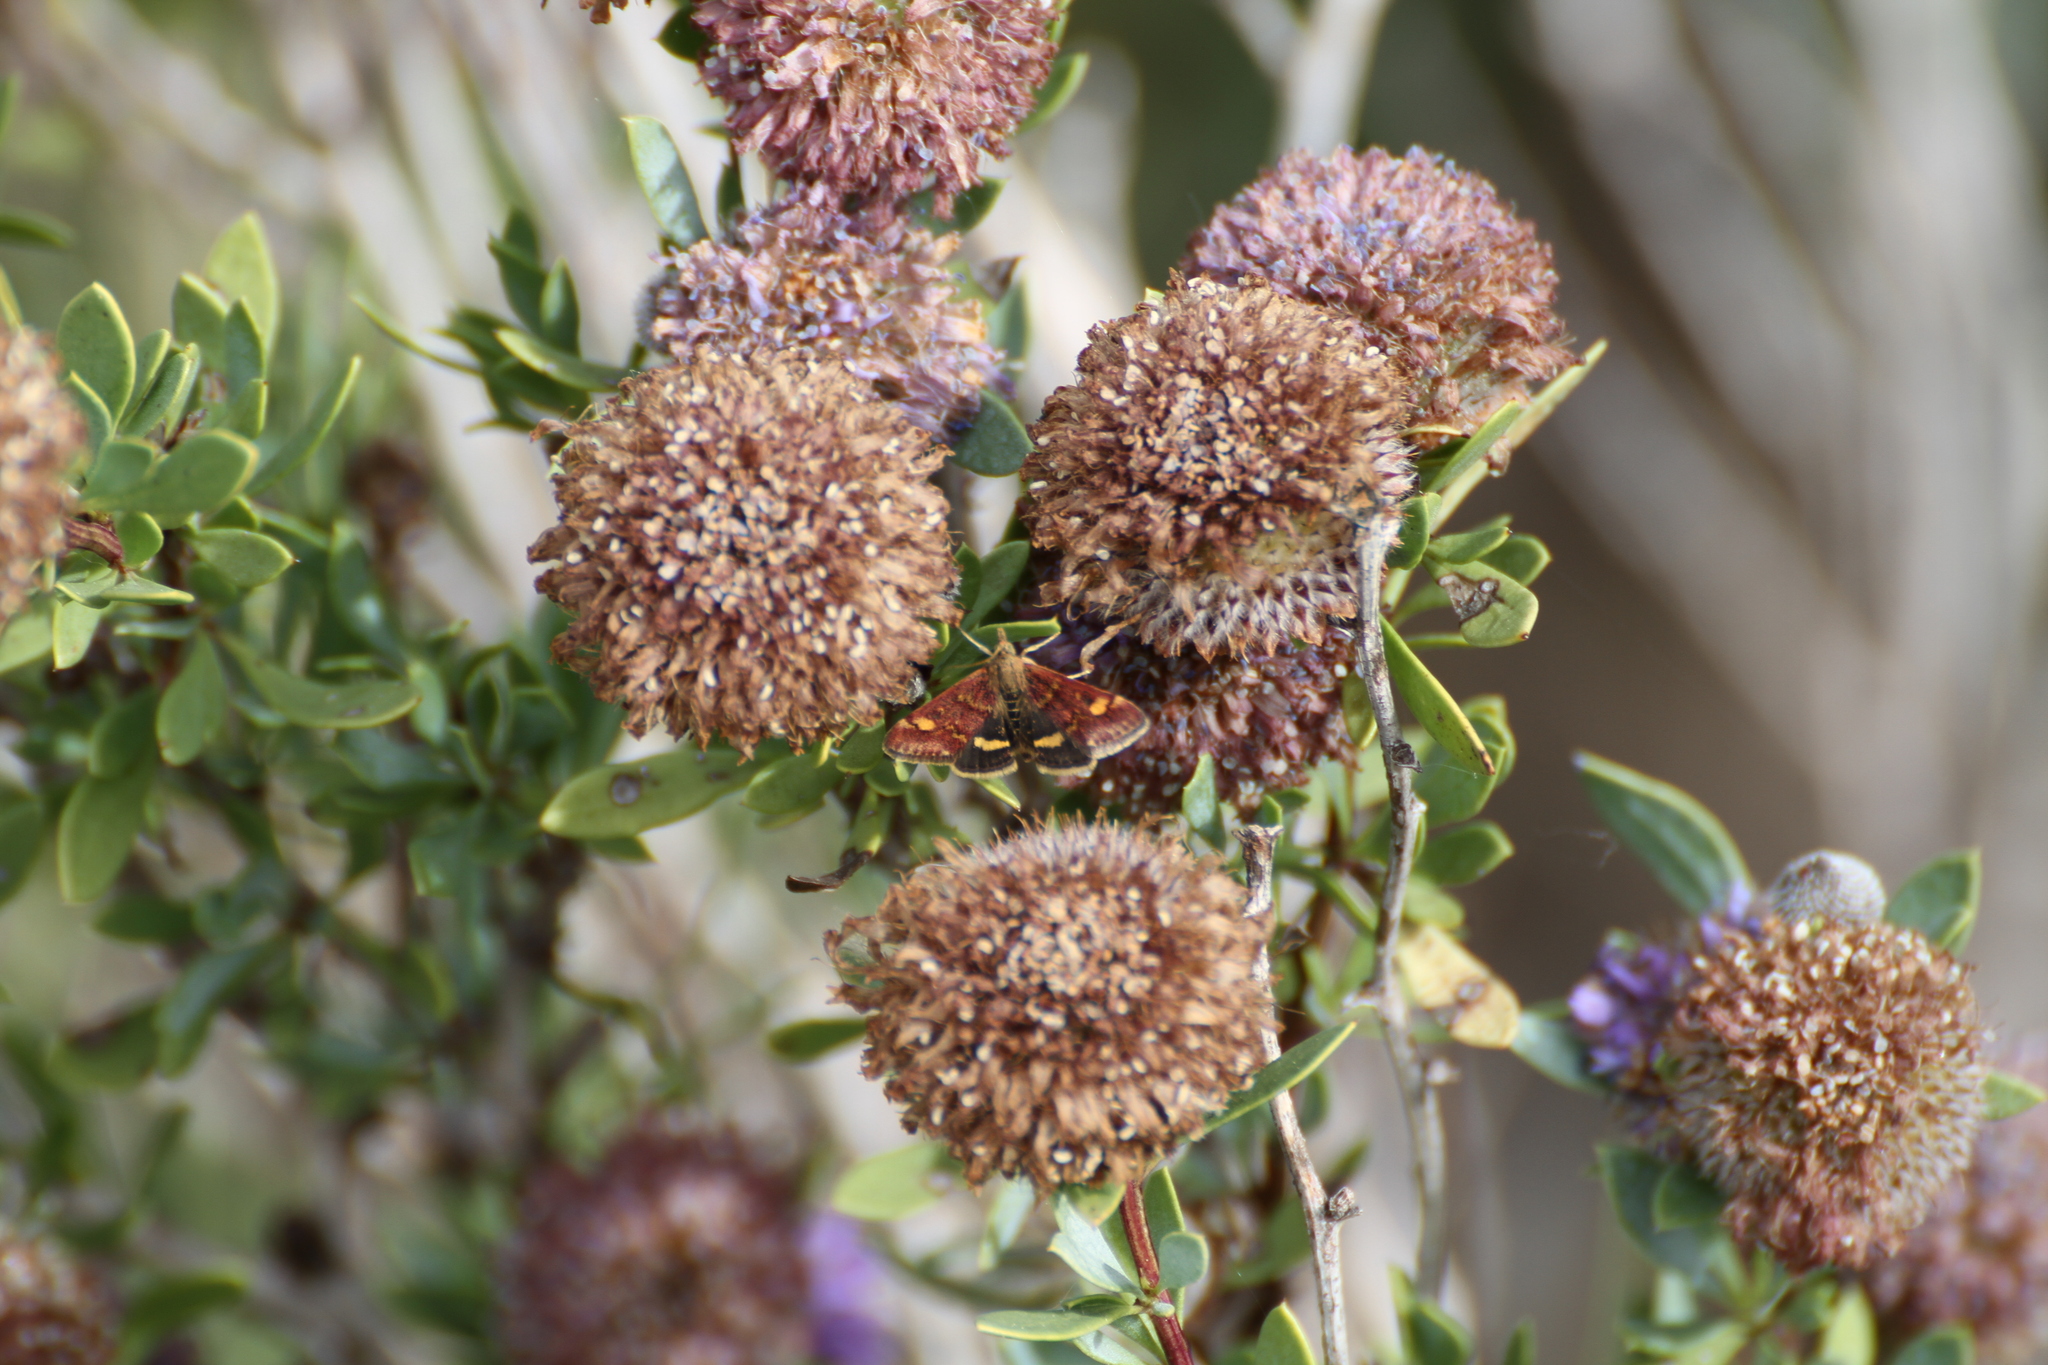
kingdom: Animalia
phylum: Arthropoda
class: Insecta
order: Lepidoptera
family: Crambidae
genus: Pyrausta
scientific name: Pyrausta aurata
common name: Small purple & gold
